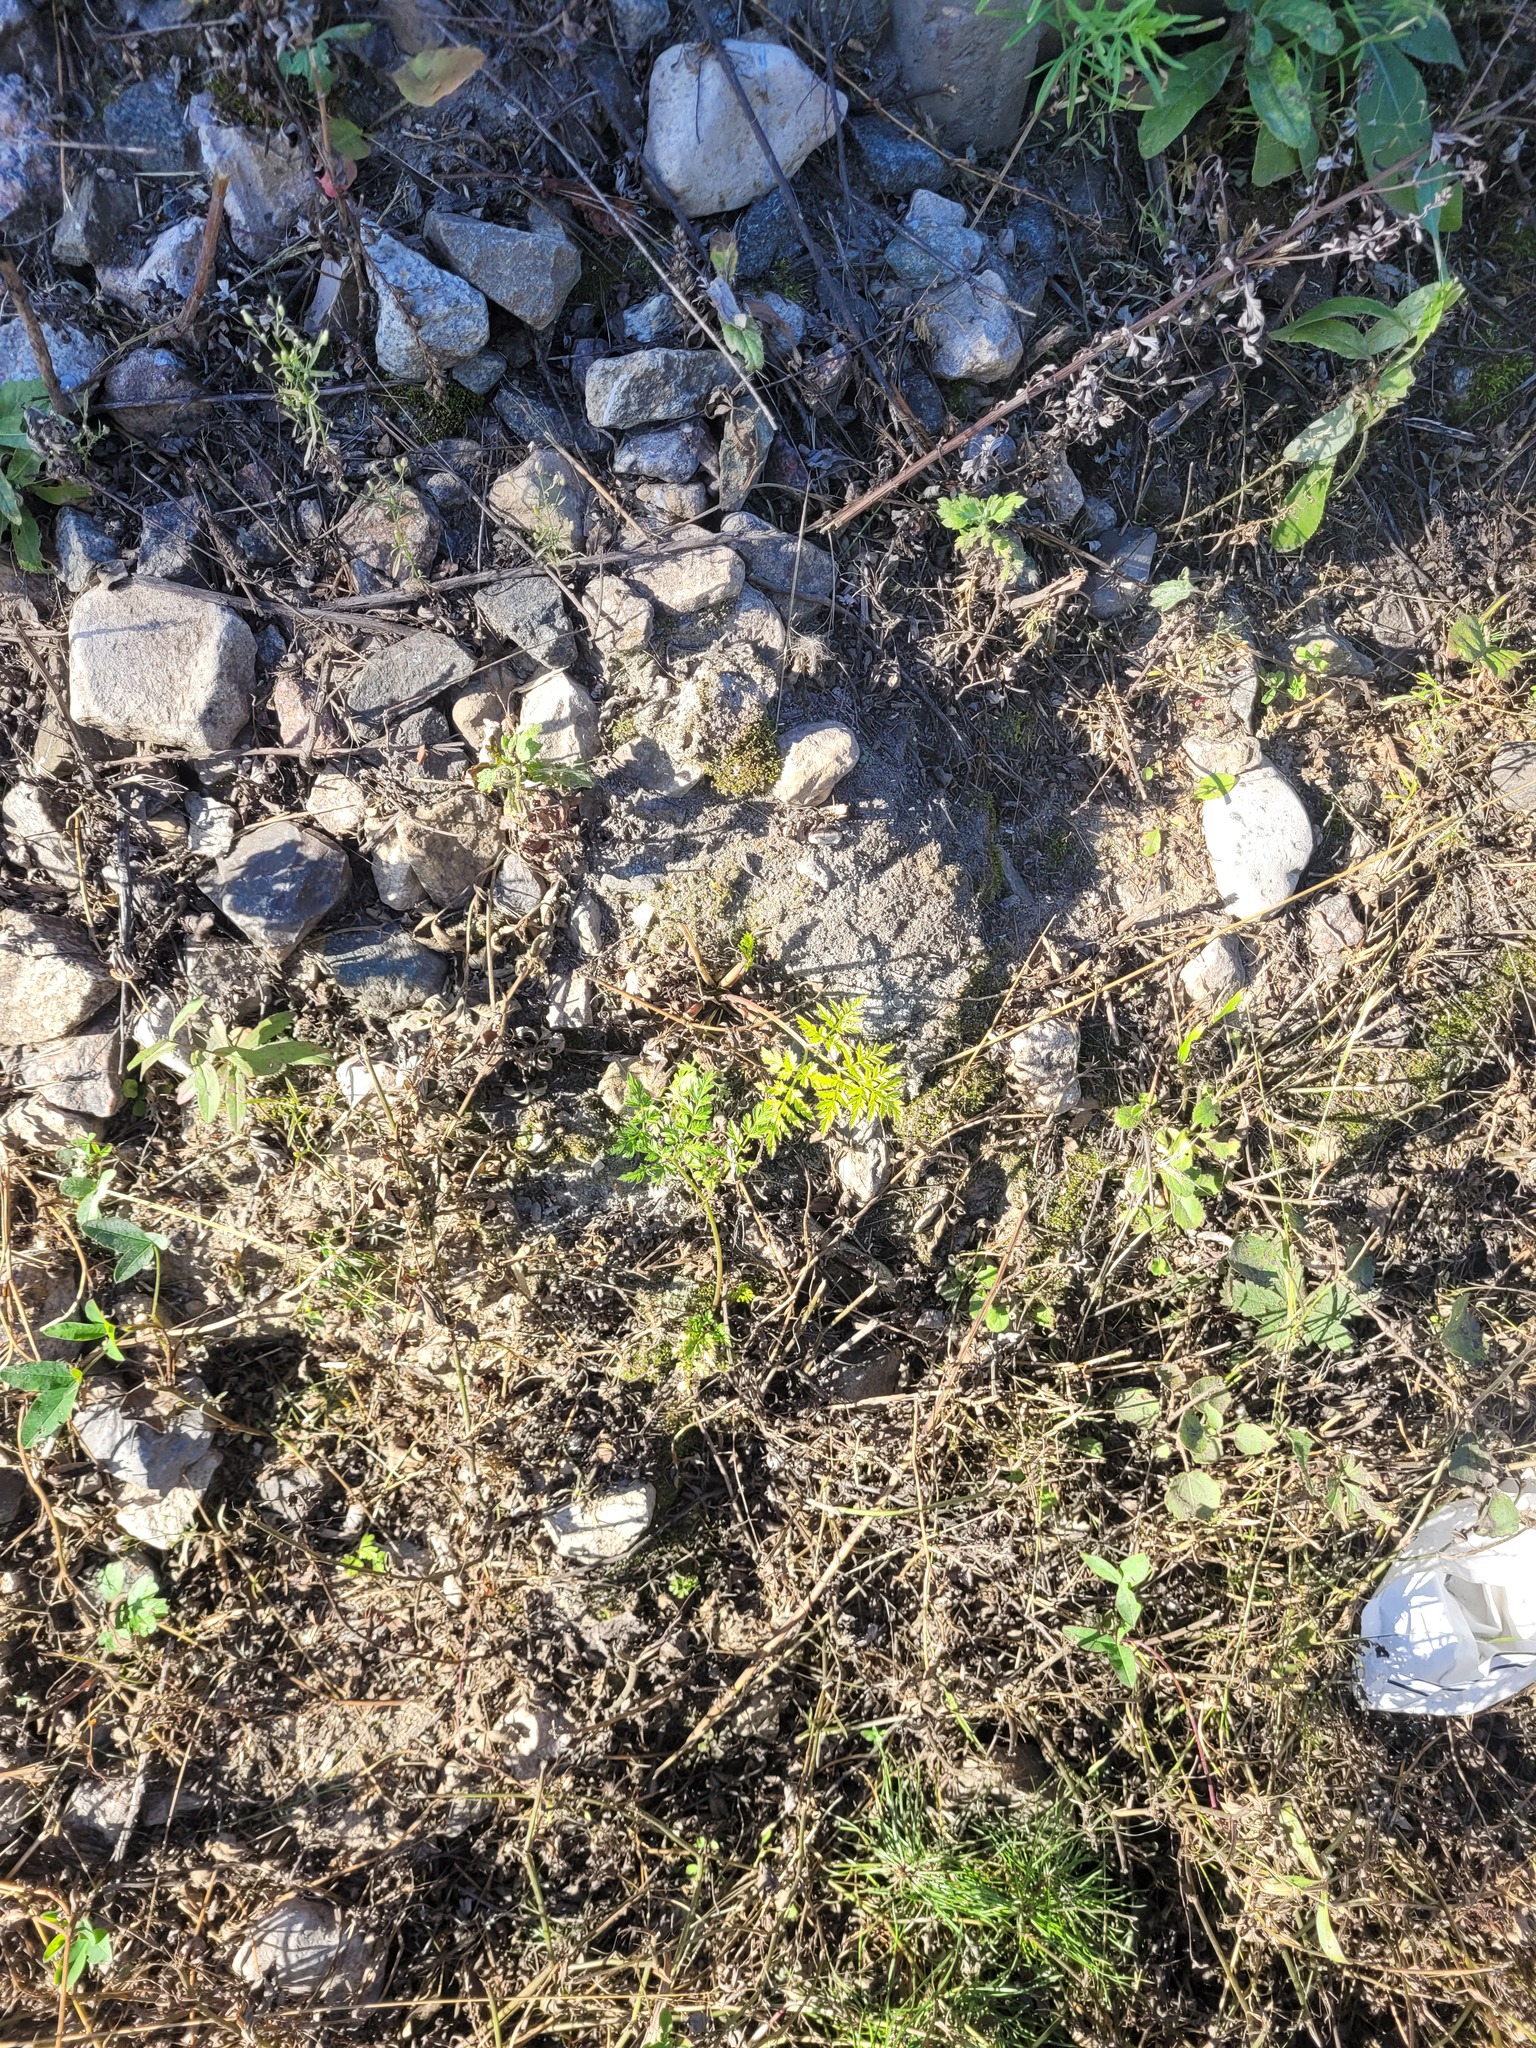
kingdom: Plantae
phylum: Tracheophyta
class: Magnoliopsida
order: Apiales
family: Apiaceae
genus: Anthriscus
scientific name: Anthriscus sylvestris
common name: Cow parsley
